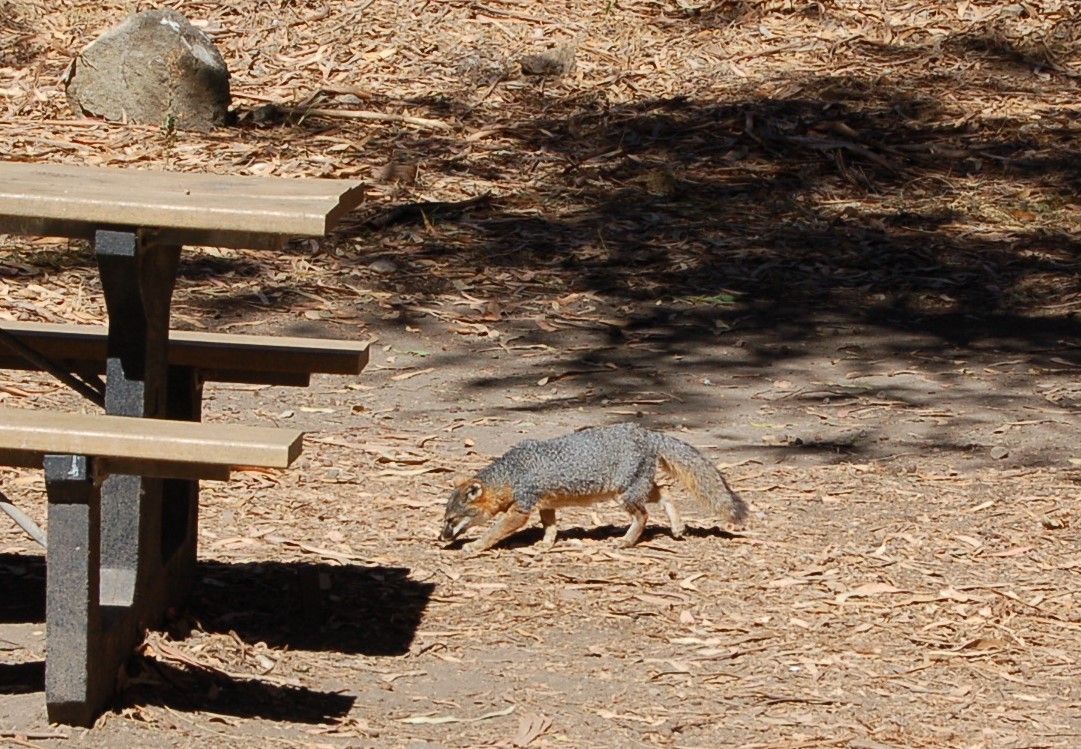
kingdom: Animalia
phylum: Chordata
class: Mammalia
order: Carnivora
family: Canidae
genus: Urocyon
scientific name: Urocyon littoralis
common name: Island gray fox
